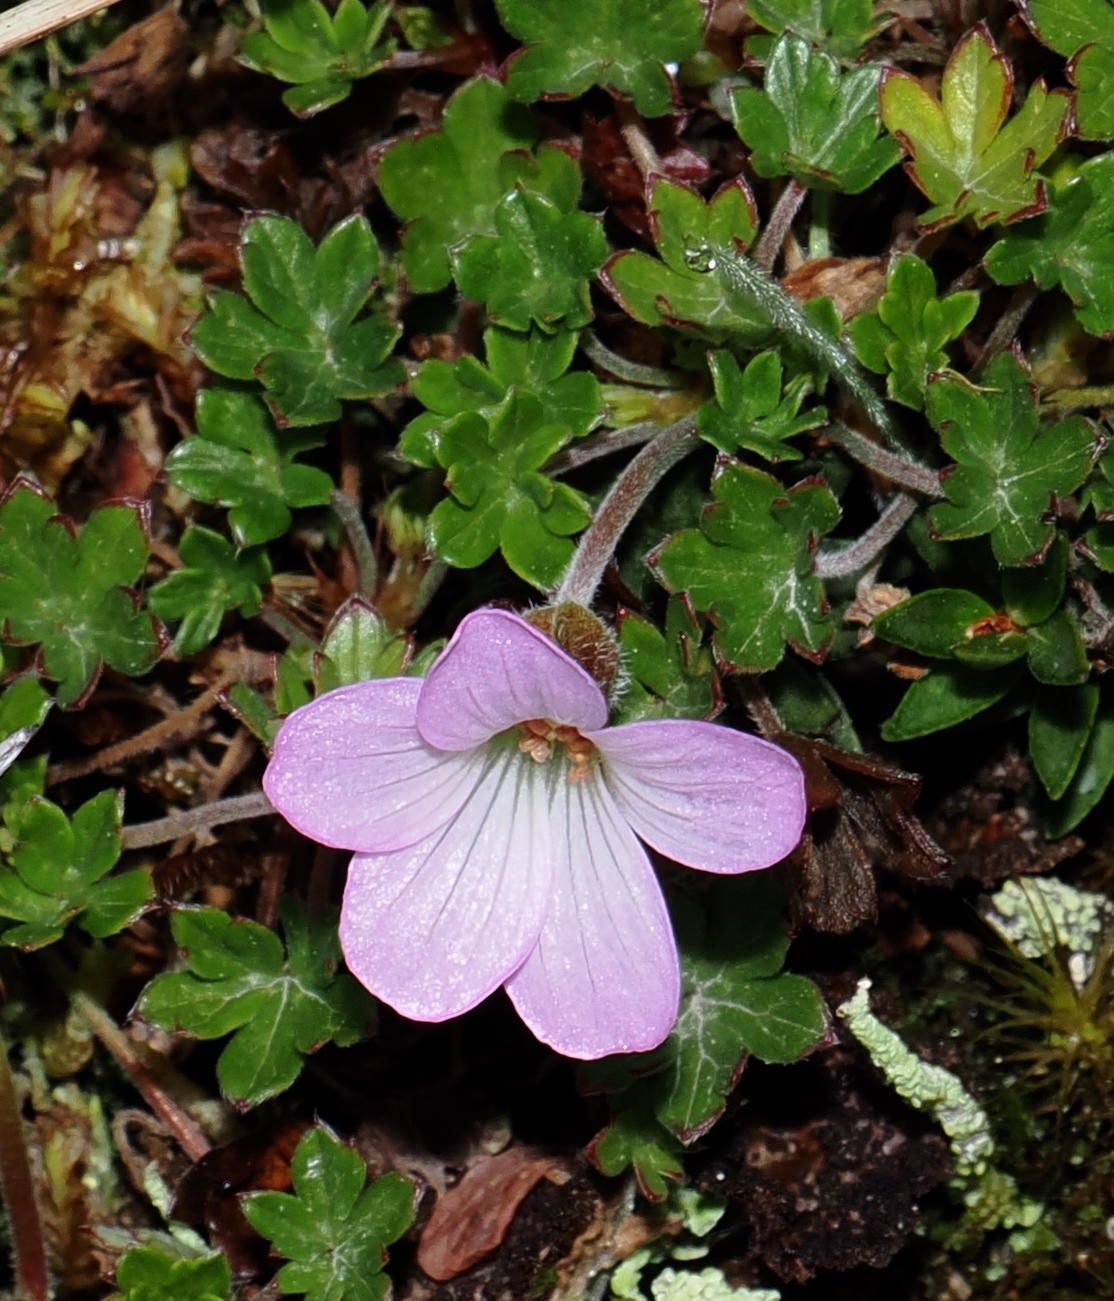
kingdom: Plantae
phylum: Tracheophyta
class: Magnoliopsida
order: Geraniales
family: Geraniaceae
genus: Geranium
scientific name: Geranium sibbaldioides
